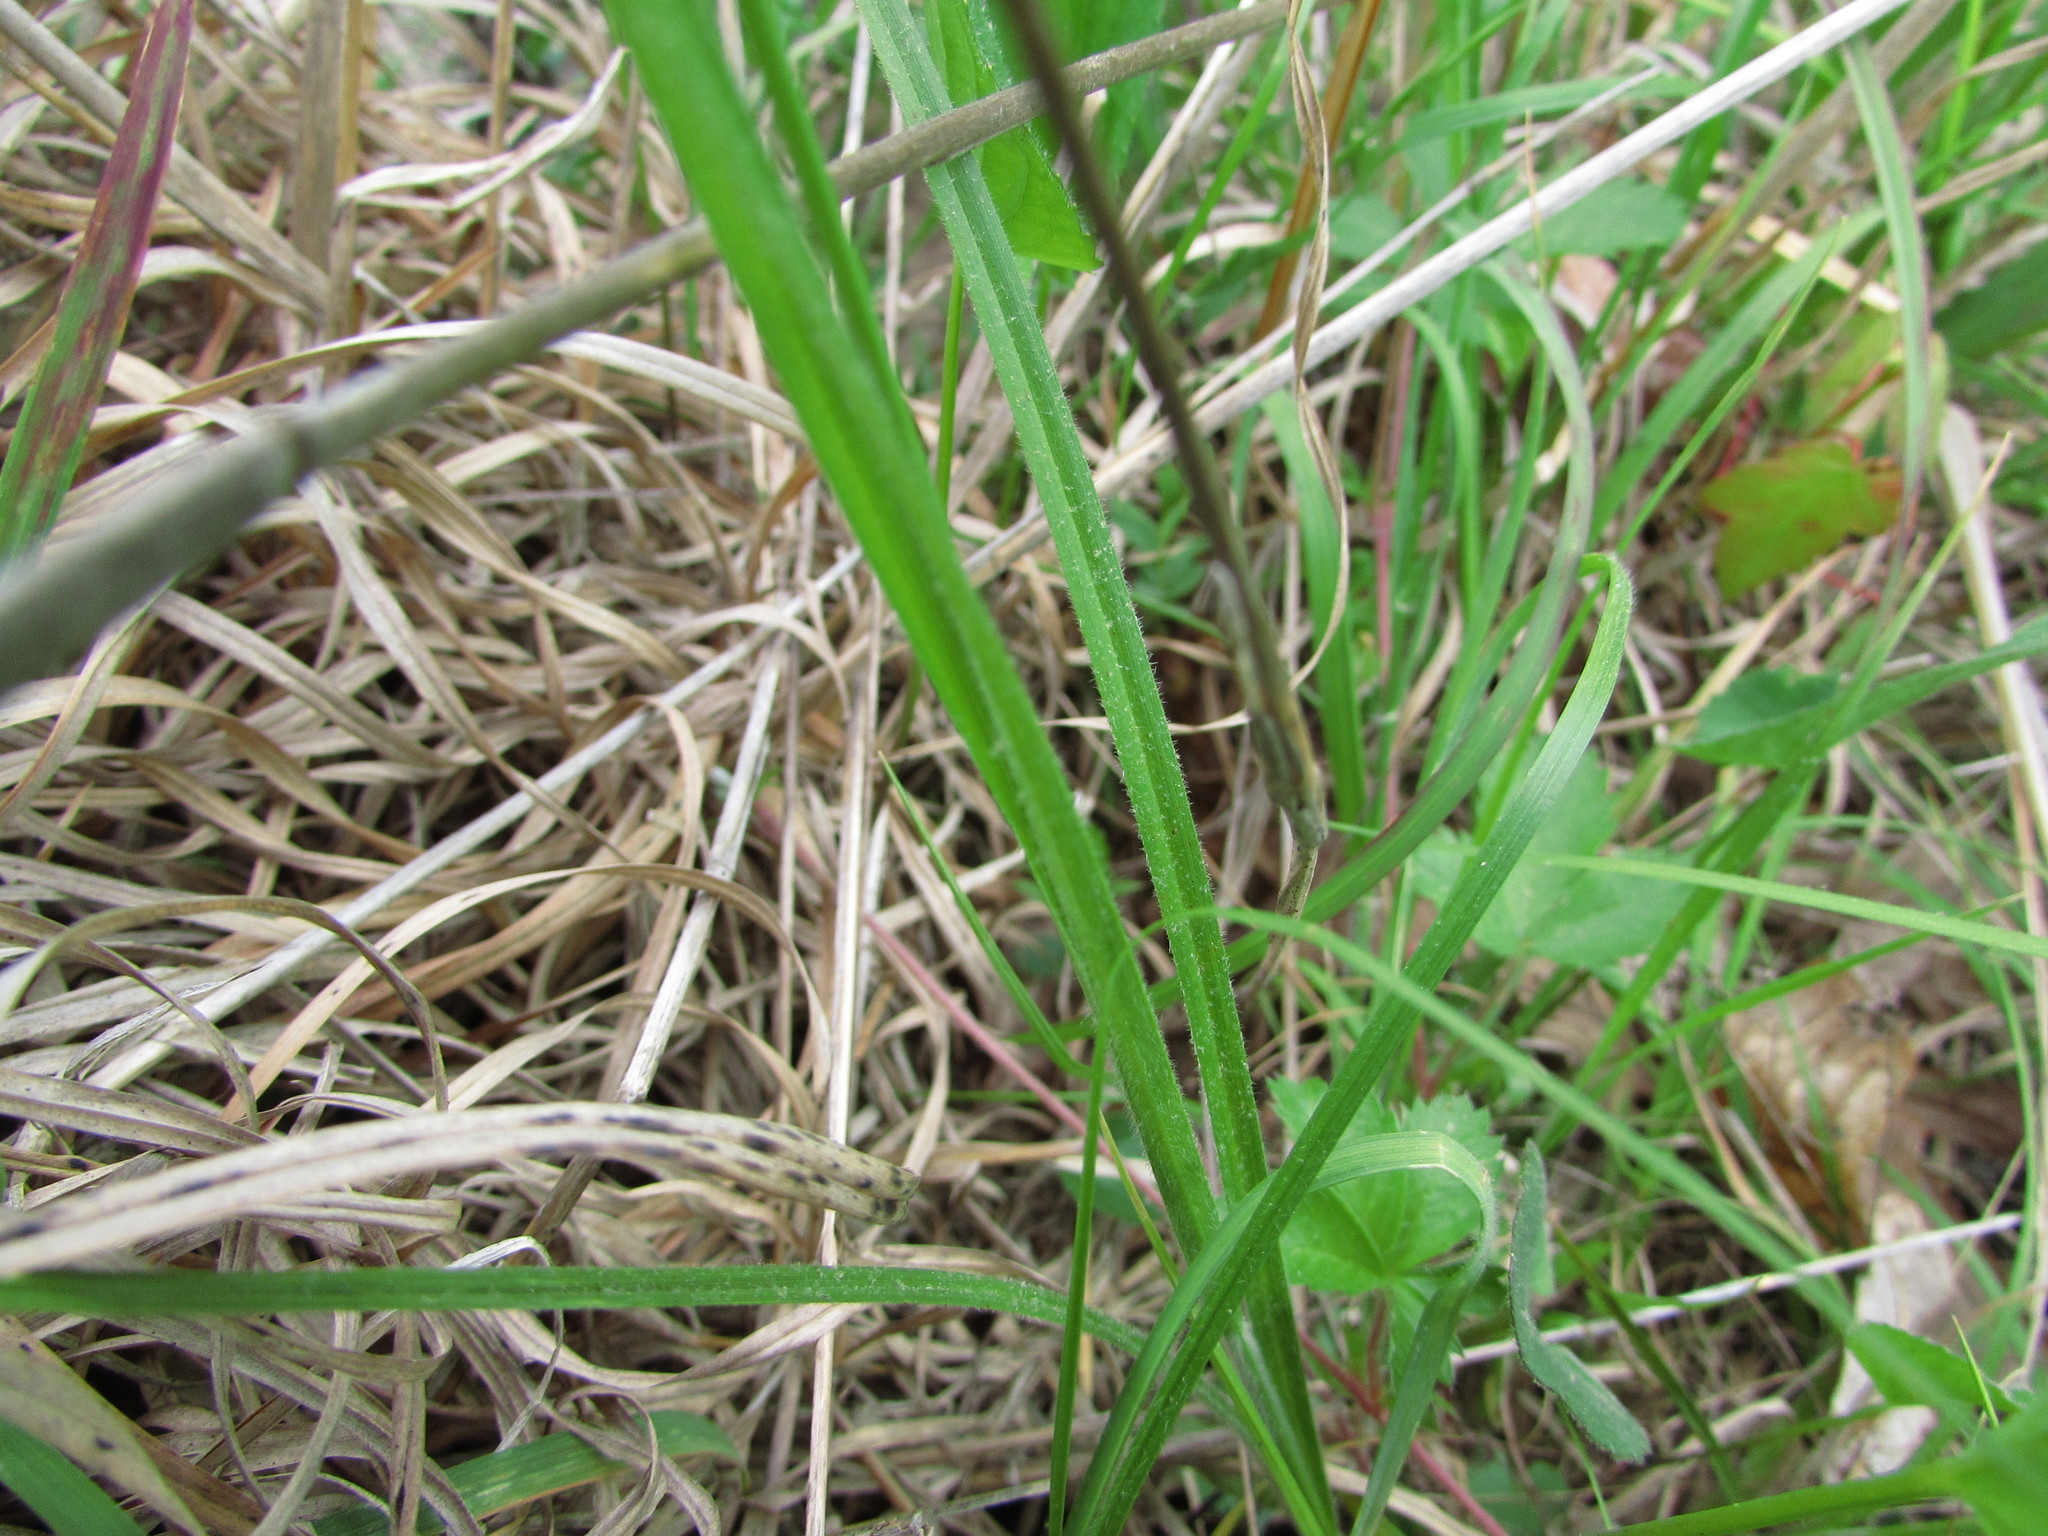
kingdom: Plantae
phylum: Tracheophyta
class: Liliopsida
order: Poales
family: Cyperaceae
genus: Carex
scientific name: Carex hirsutella
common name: Fuzzy wuzzy sedge
